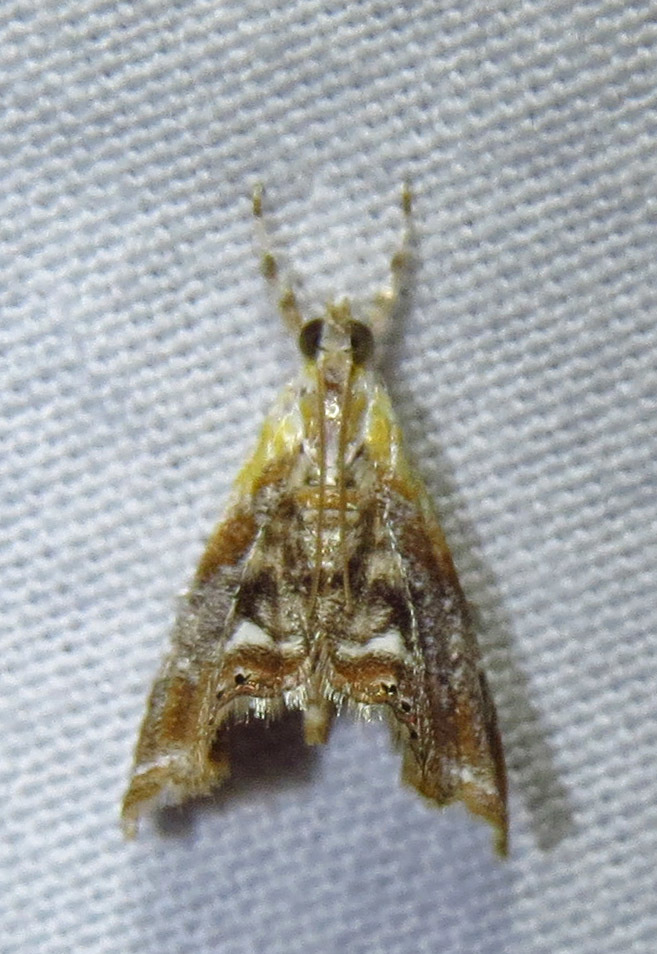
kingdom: Animalia
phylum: Arthropoda
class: Insecta
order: Lepidoptera
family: Crambidae
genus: Dicymolomia
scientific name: Dicymolomia julianalis
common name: Julia's dicymolomia moth
